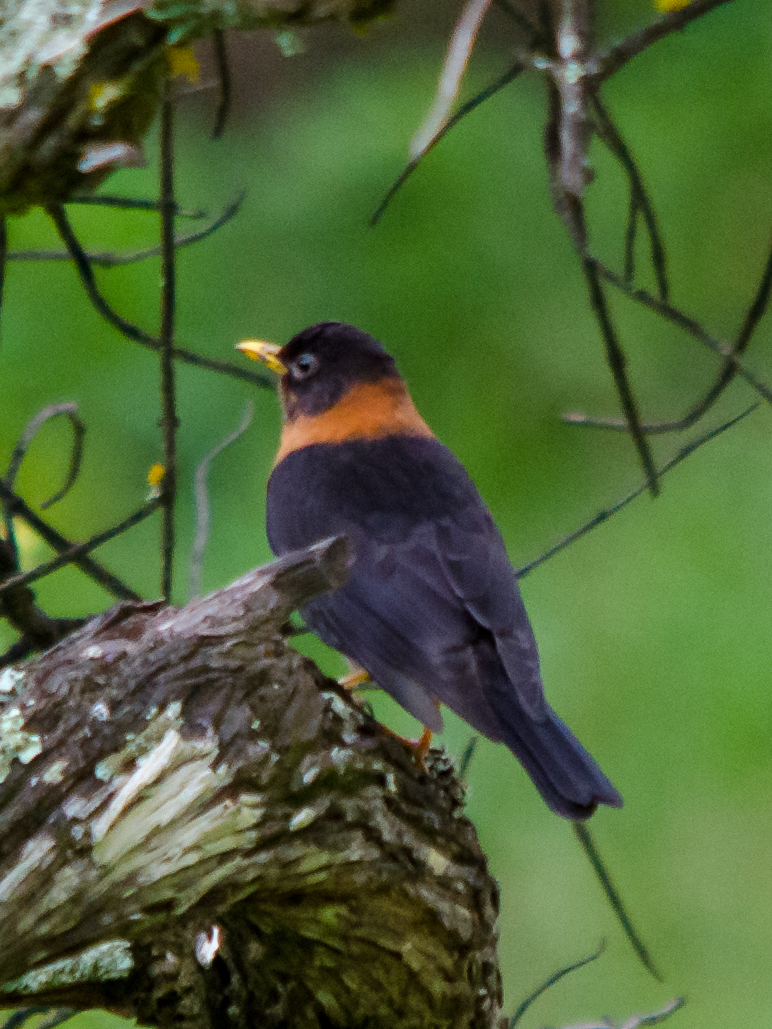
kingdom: Animalia
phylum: Chordata
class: Aves
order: Passeriformes
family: Turdidae
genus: Turdus
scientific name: Turdus rufitorques
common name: Rufous-collared thrush
